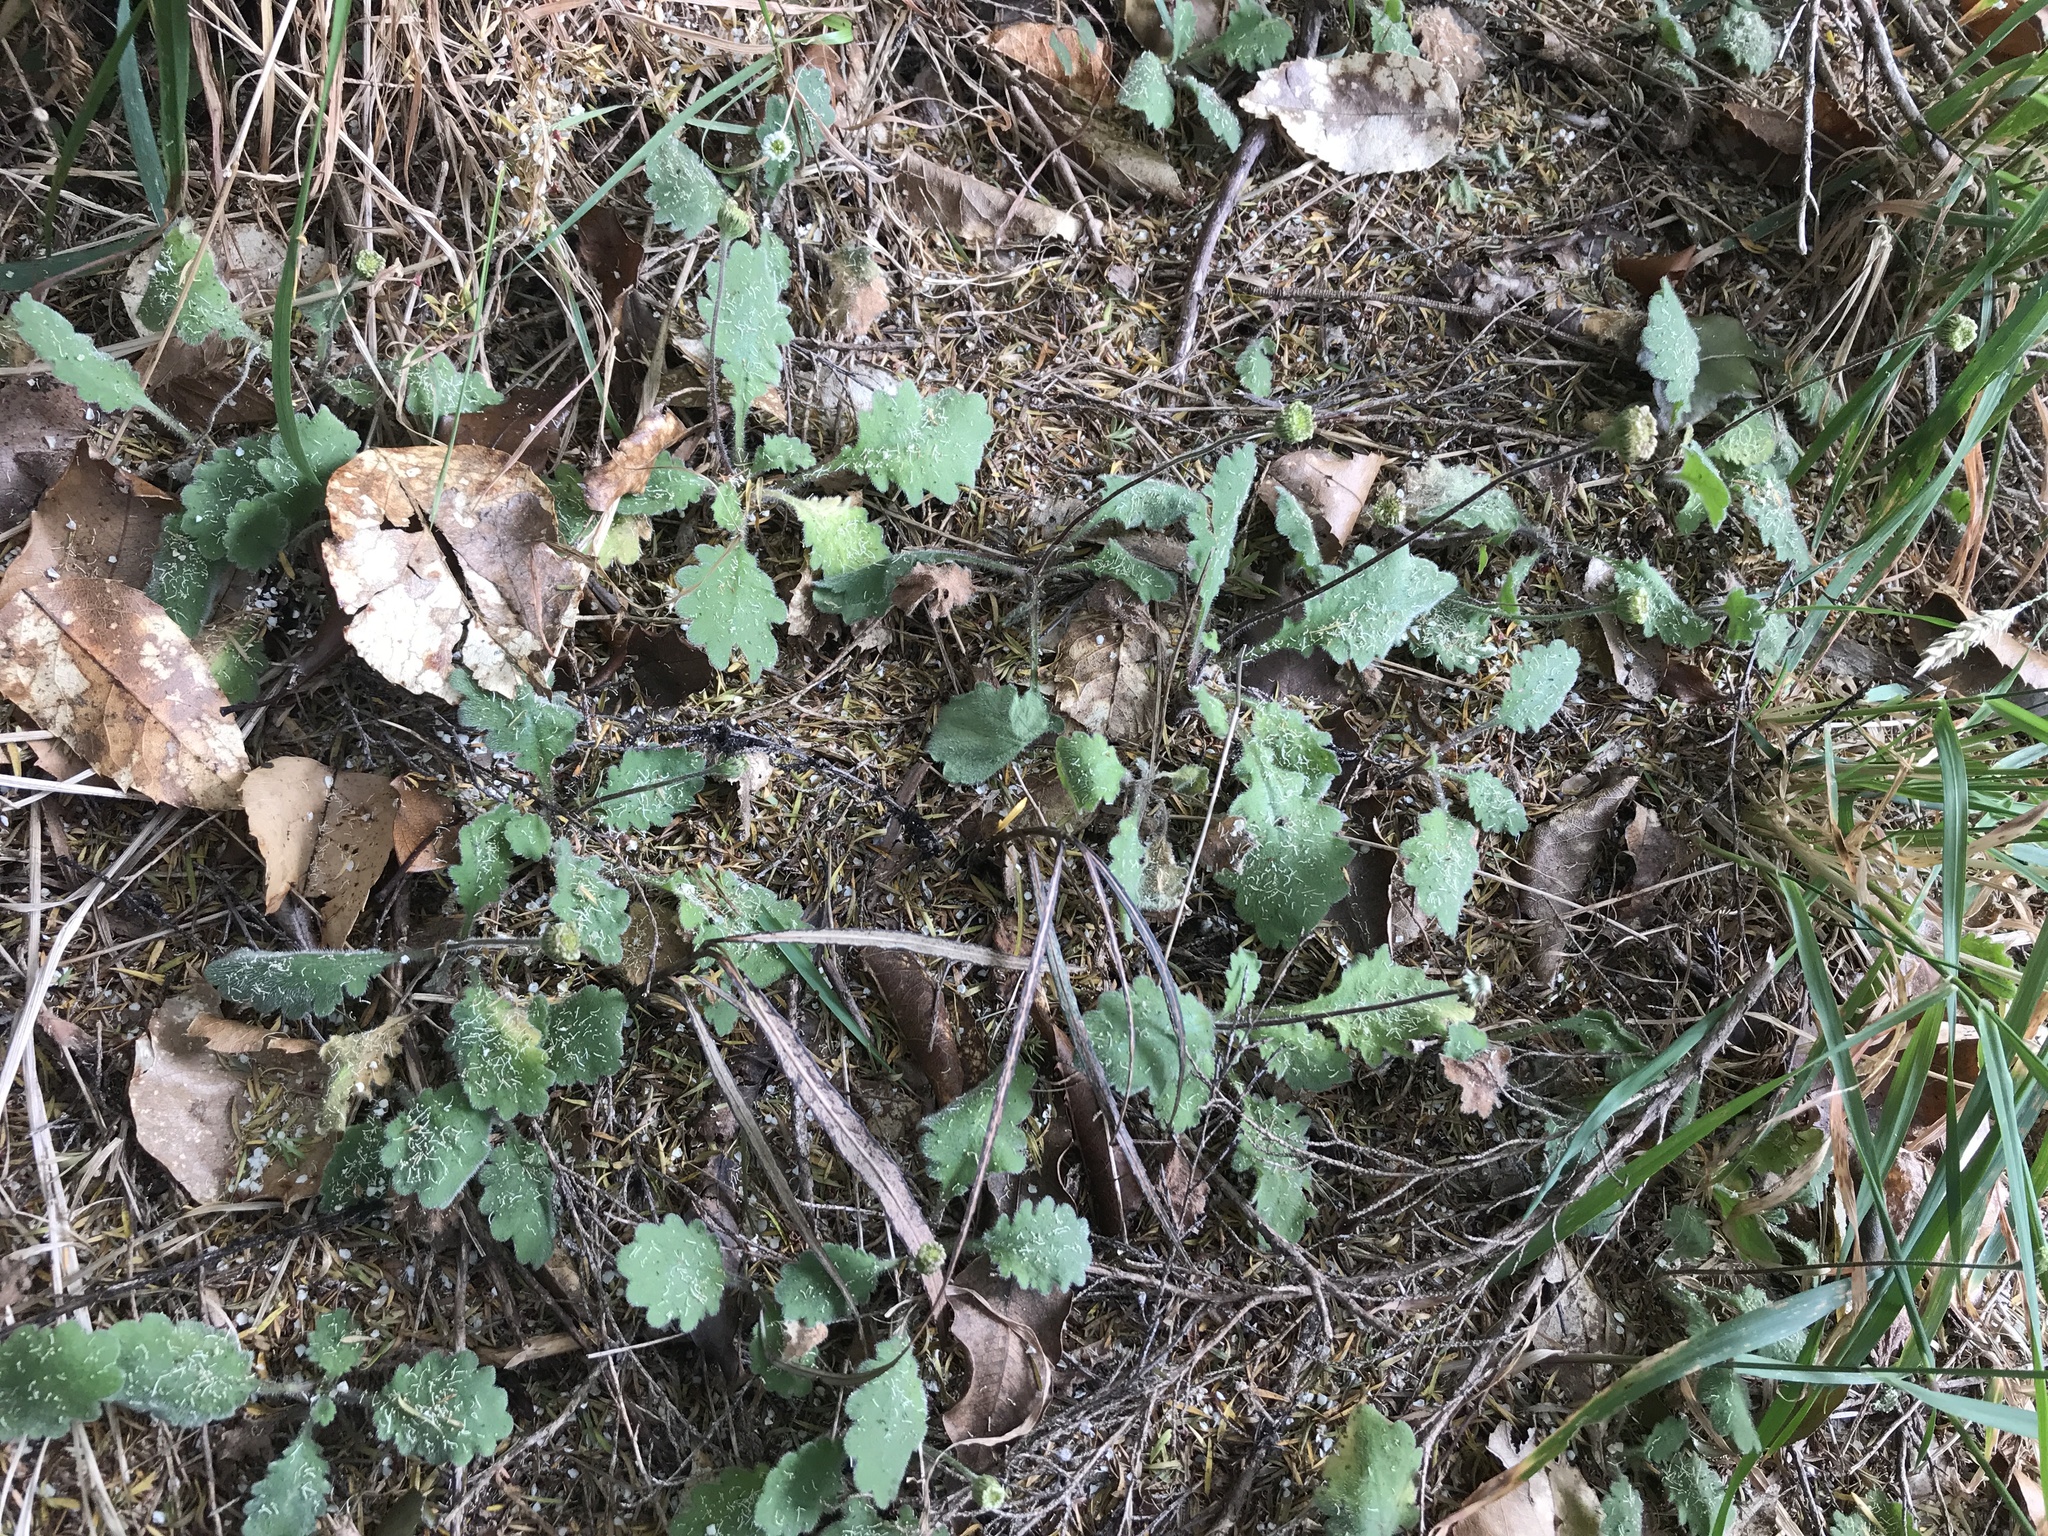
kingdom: Plantae
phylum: Tracheophyta
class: Magnoliopsida
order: Asterales
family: Asteraceae
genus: Lagenophora
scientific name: Lagenophora pinnatifida
